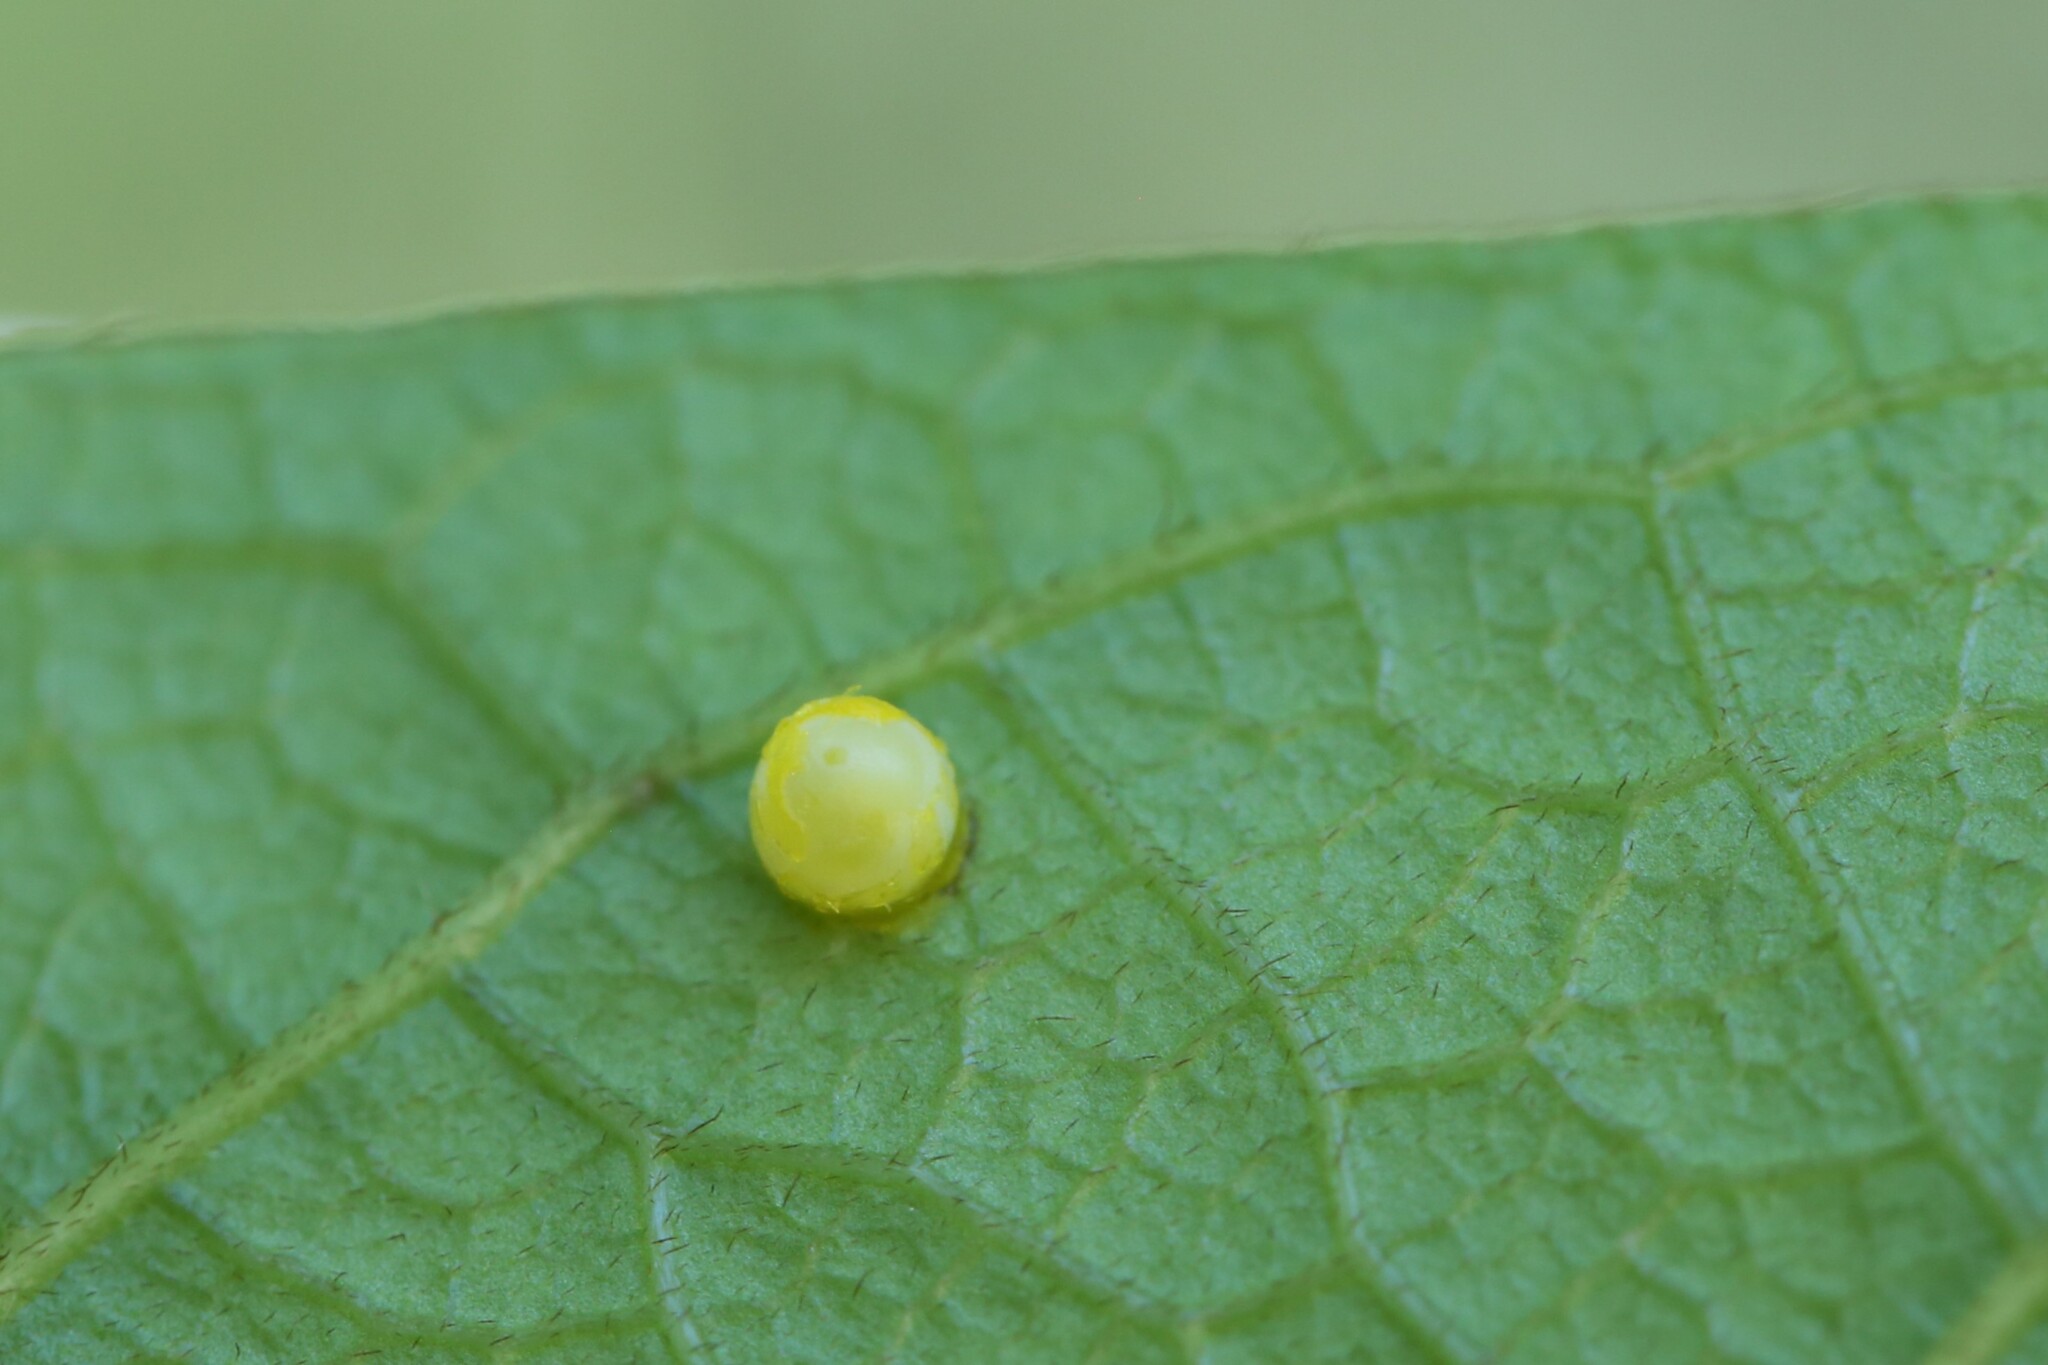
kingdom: Animalia
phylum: Arthropoda
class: Insecta
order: Lepidoptera
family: Papilionidae
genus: Ornithoptera
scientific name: Ornithoptera richmondia
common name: Richmond birdwing
